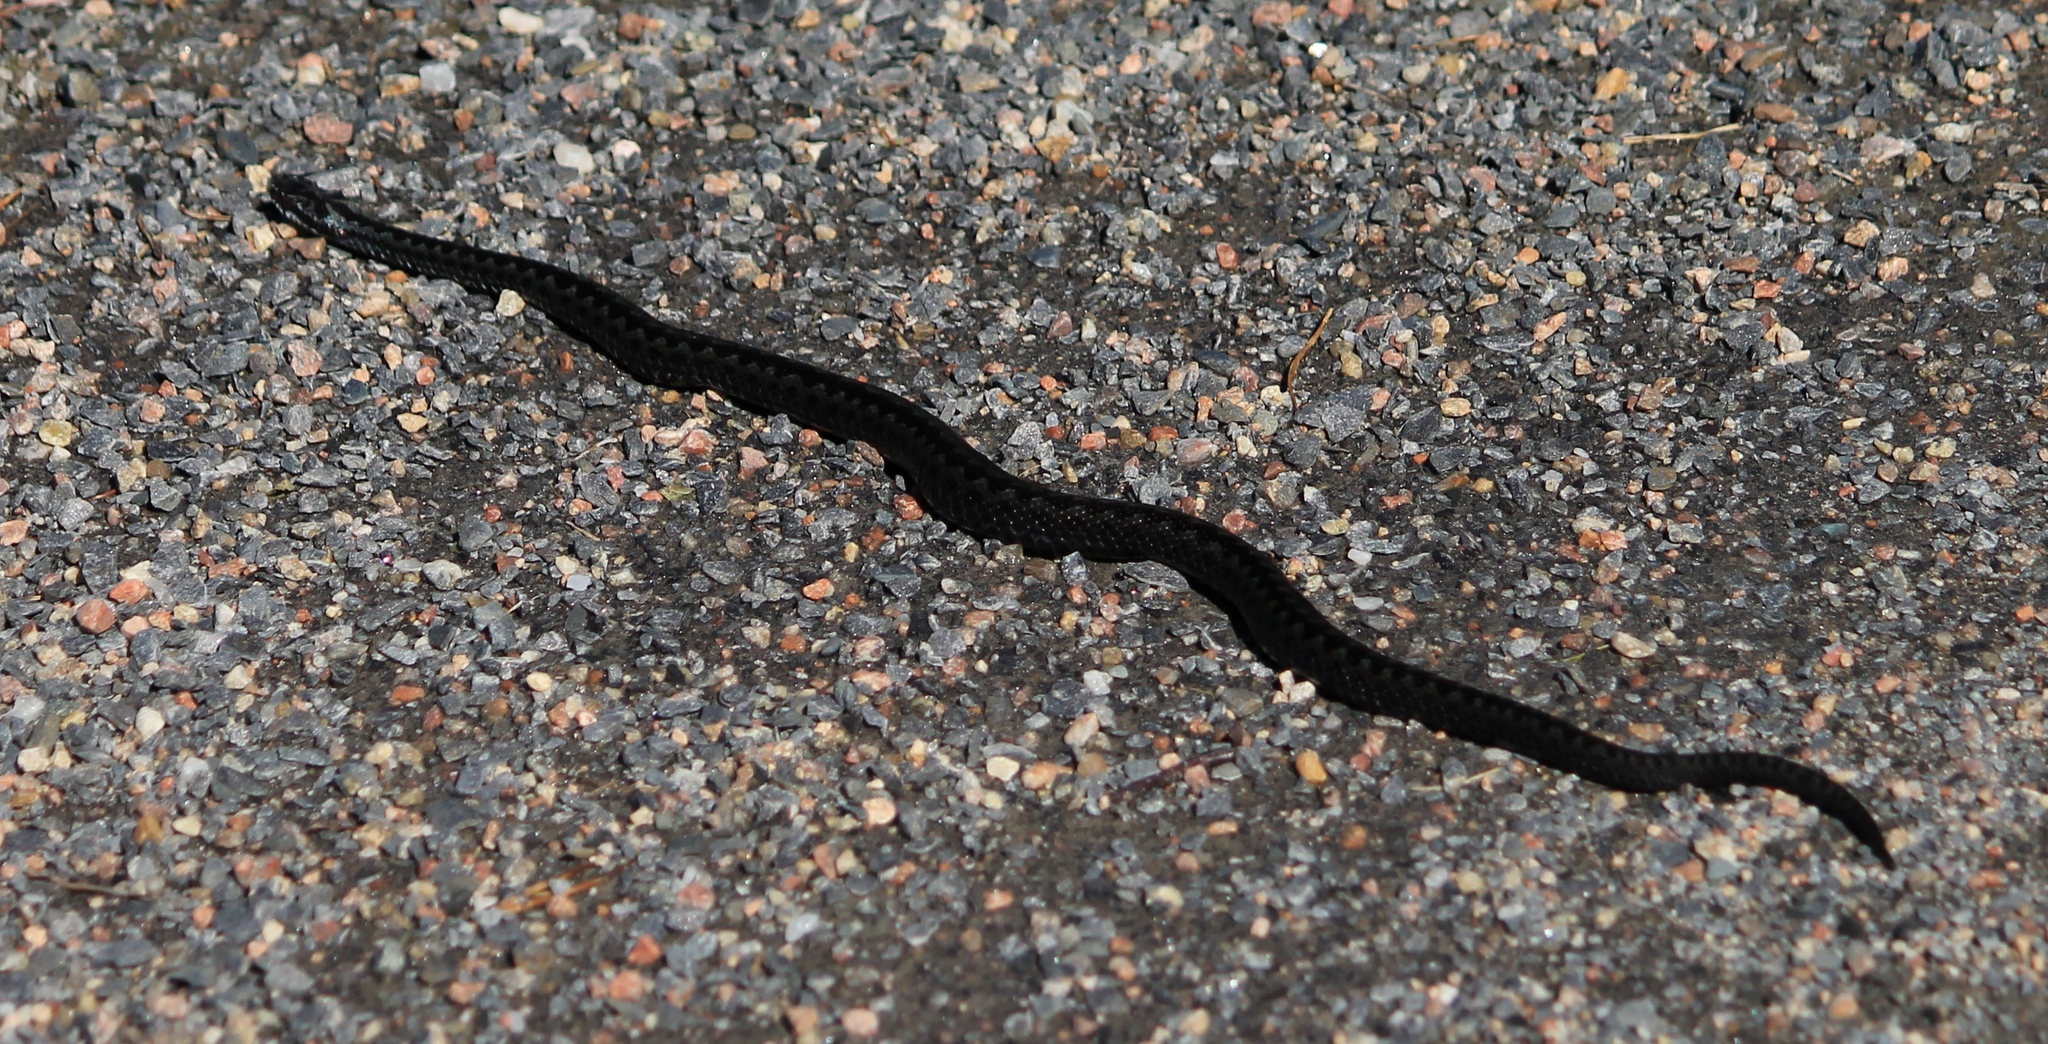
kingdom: Animalia
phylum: Chordata
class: Squamata
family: Viperidae
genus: Vipera
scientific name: Vipera berus
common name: Adder
